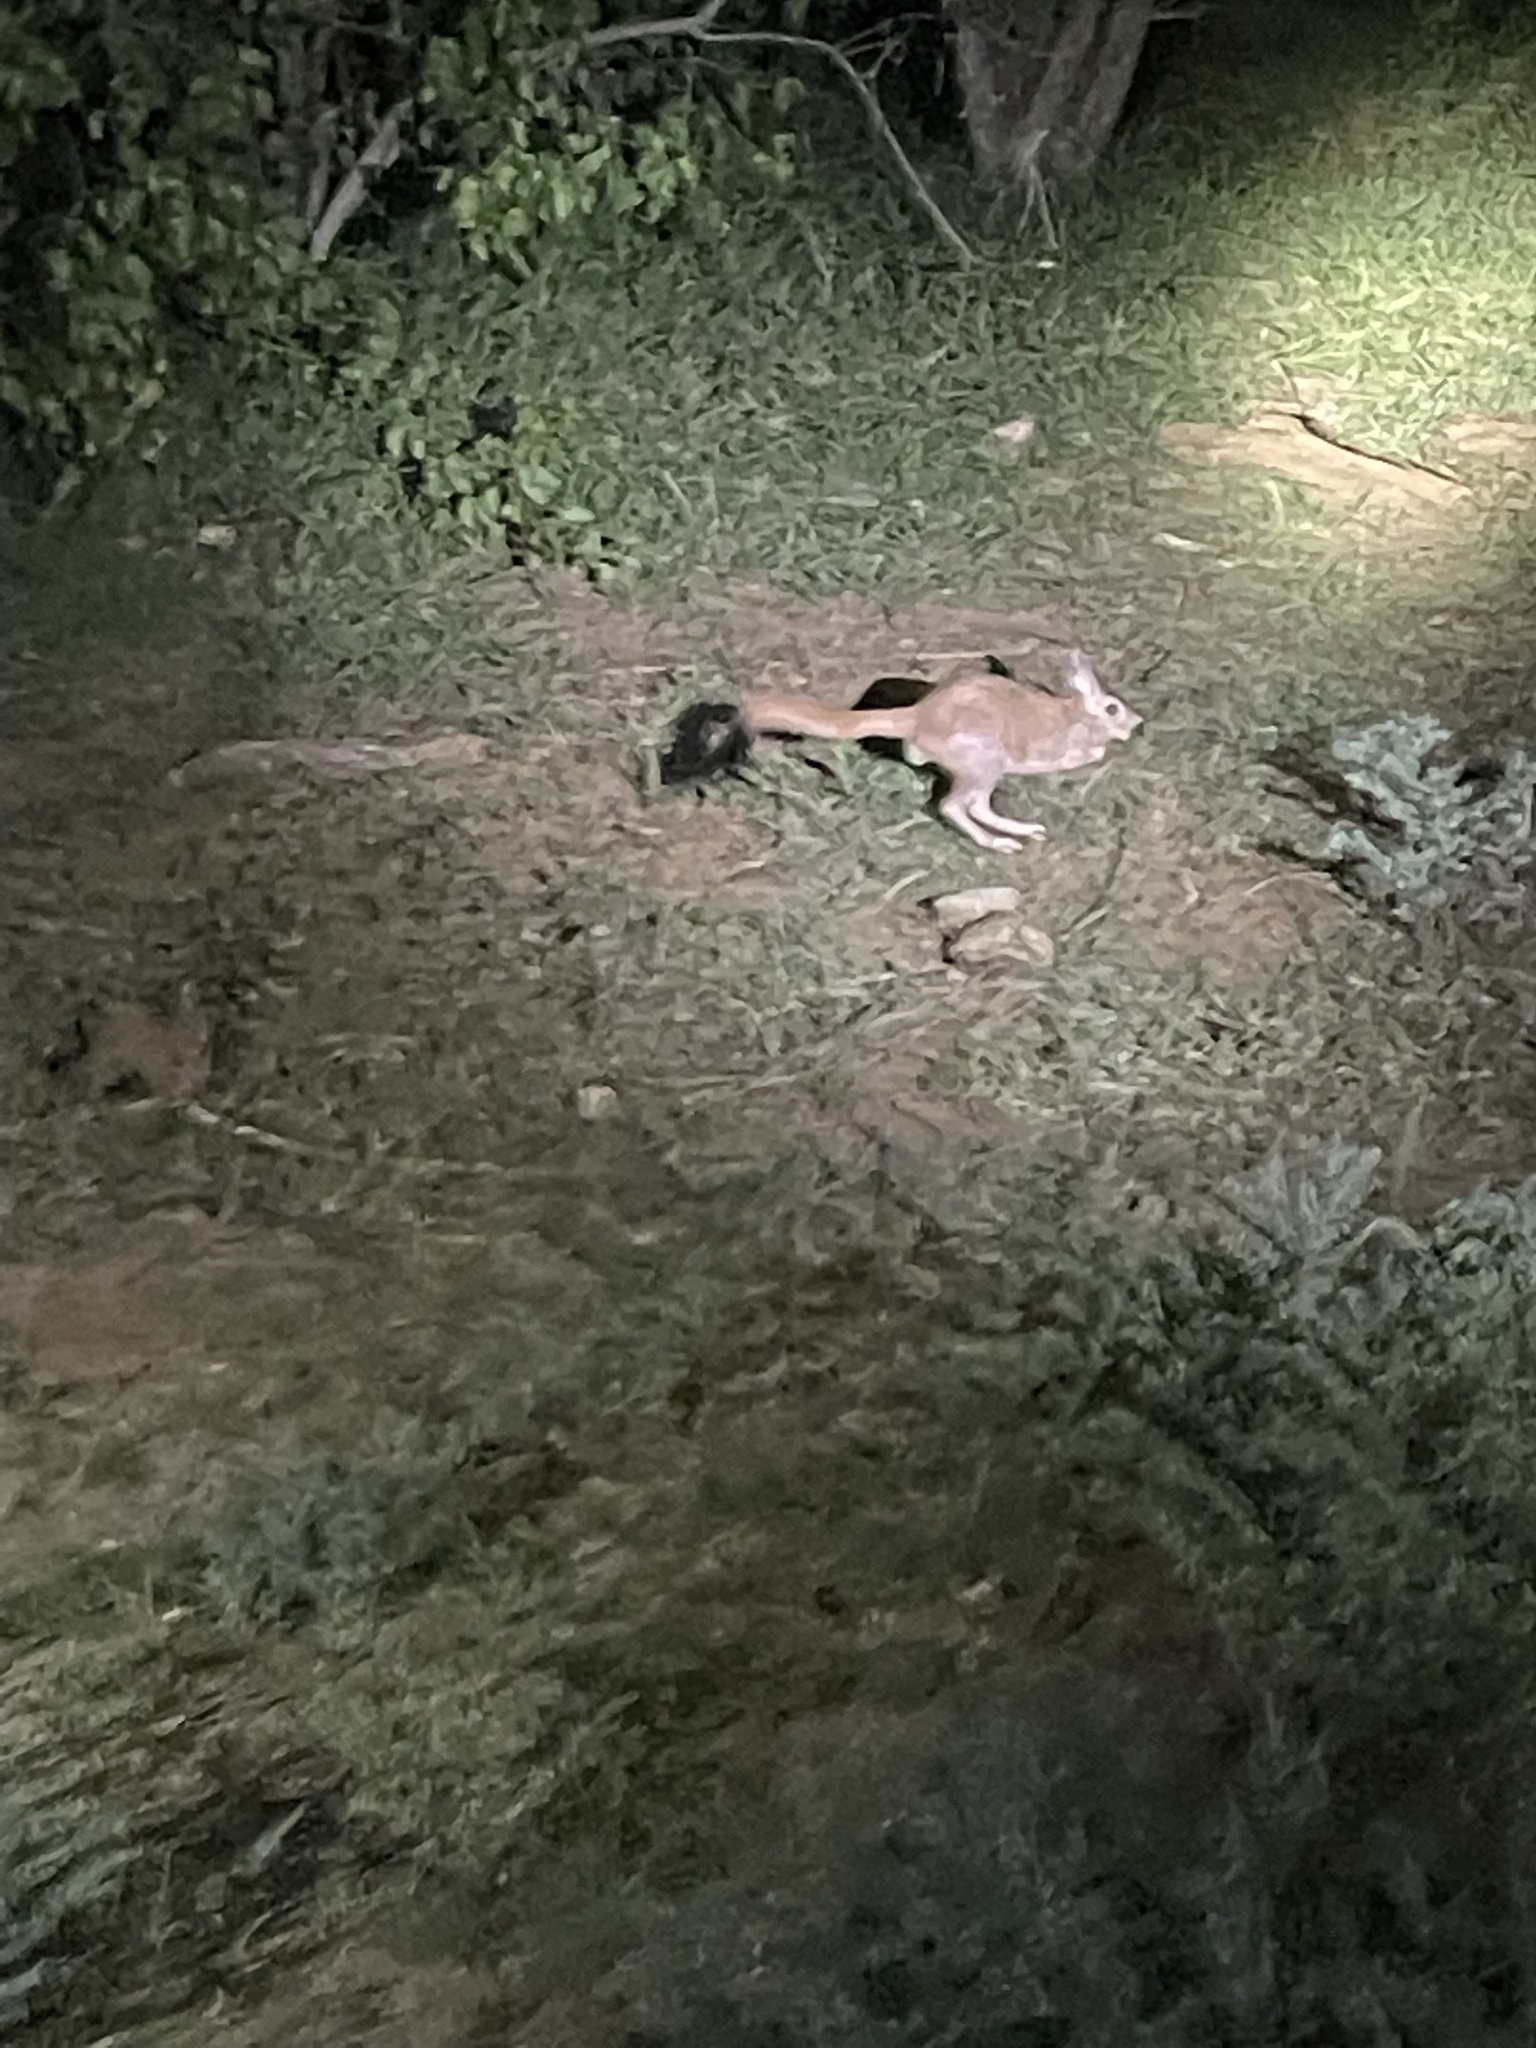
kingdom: Animalia
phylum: Chordata
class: Mammalia
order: Rodentia
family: Pedetidae
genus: Pedetes
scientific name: Pedetes capensis
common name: South african spring hare
